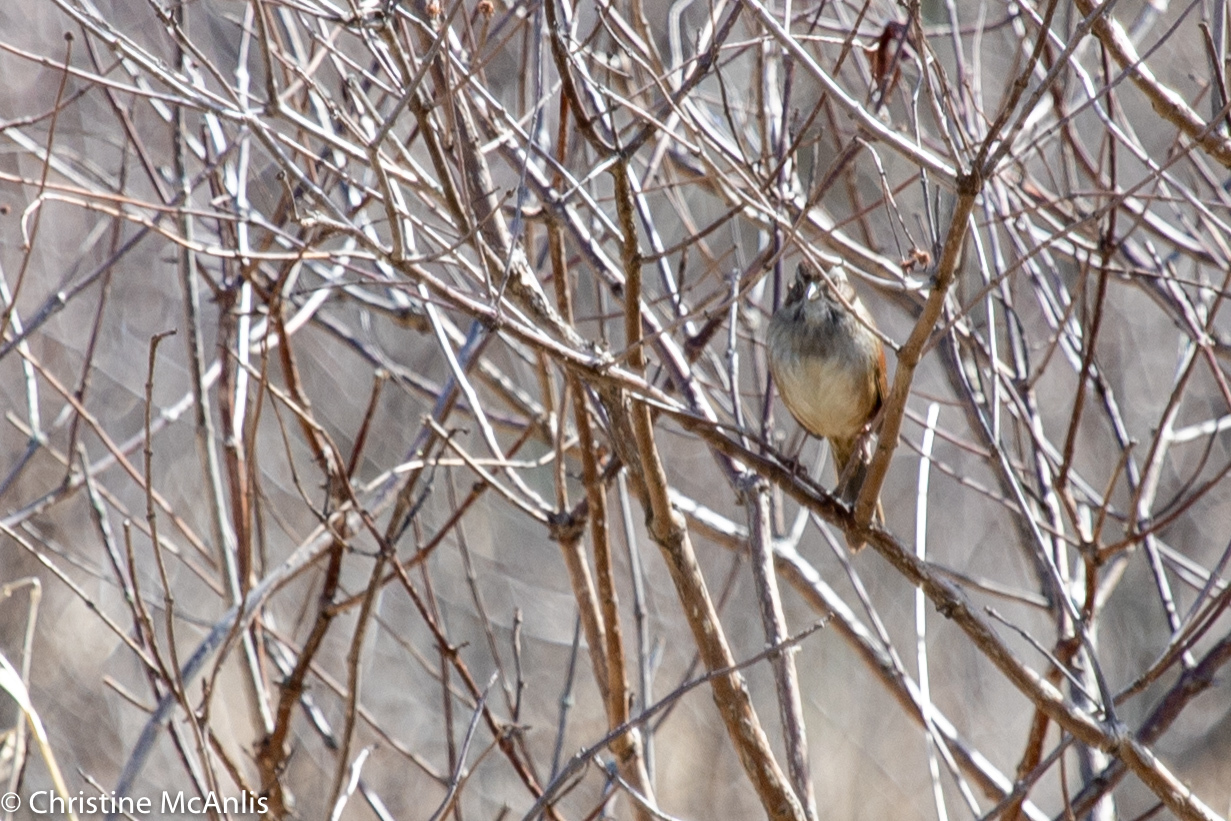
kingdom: Animalia
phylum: Chordata
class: Aves
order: Passeriformes
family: Passerellidae
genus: Melospiza
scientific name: Melospiza georgiana
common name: Swamp sparrow
